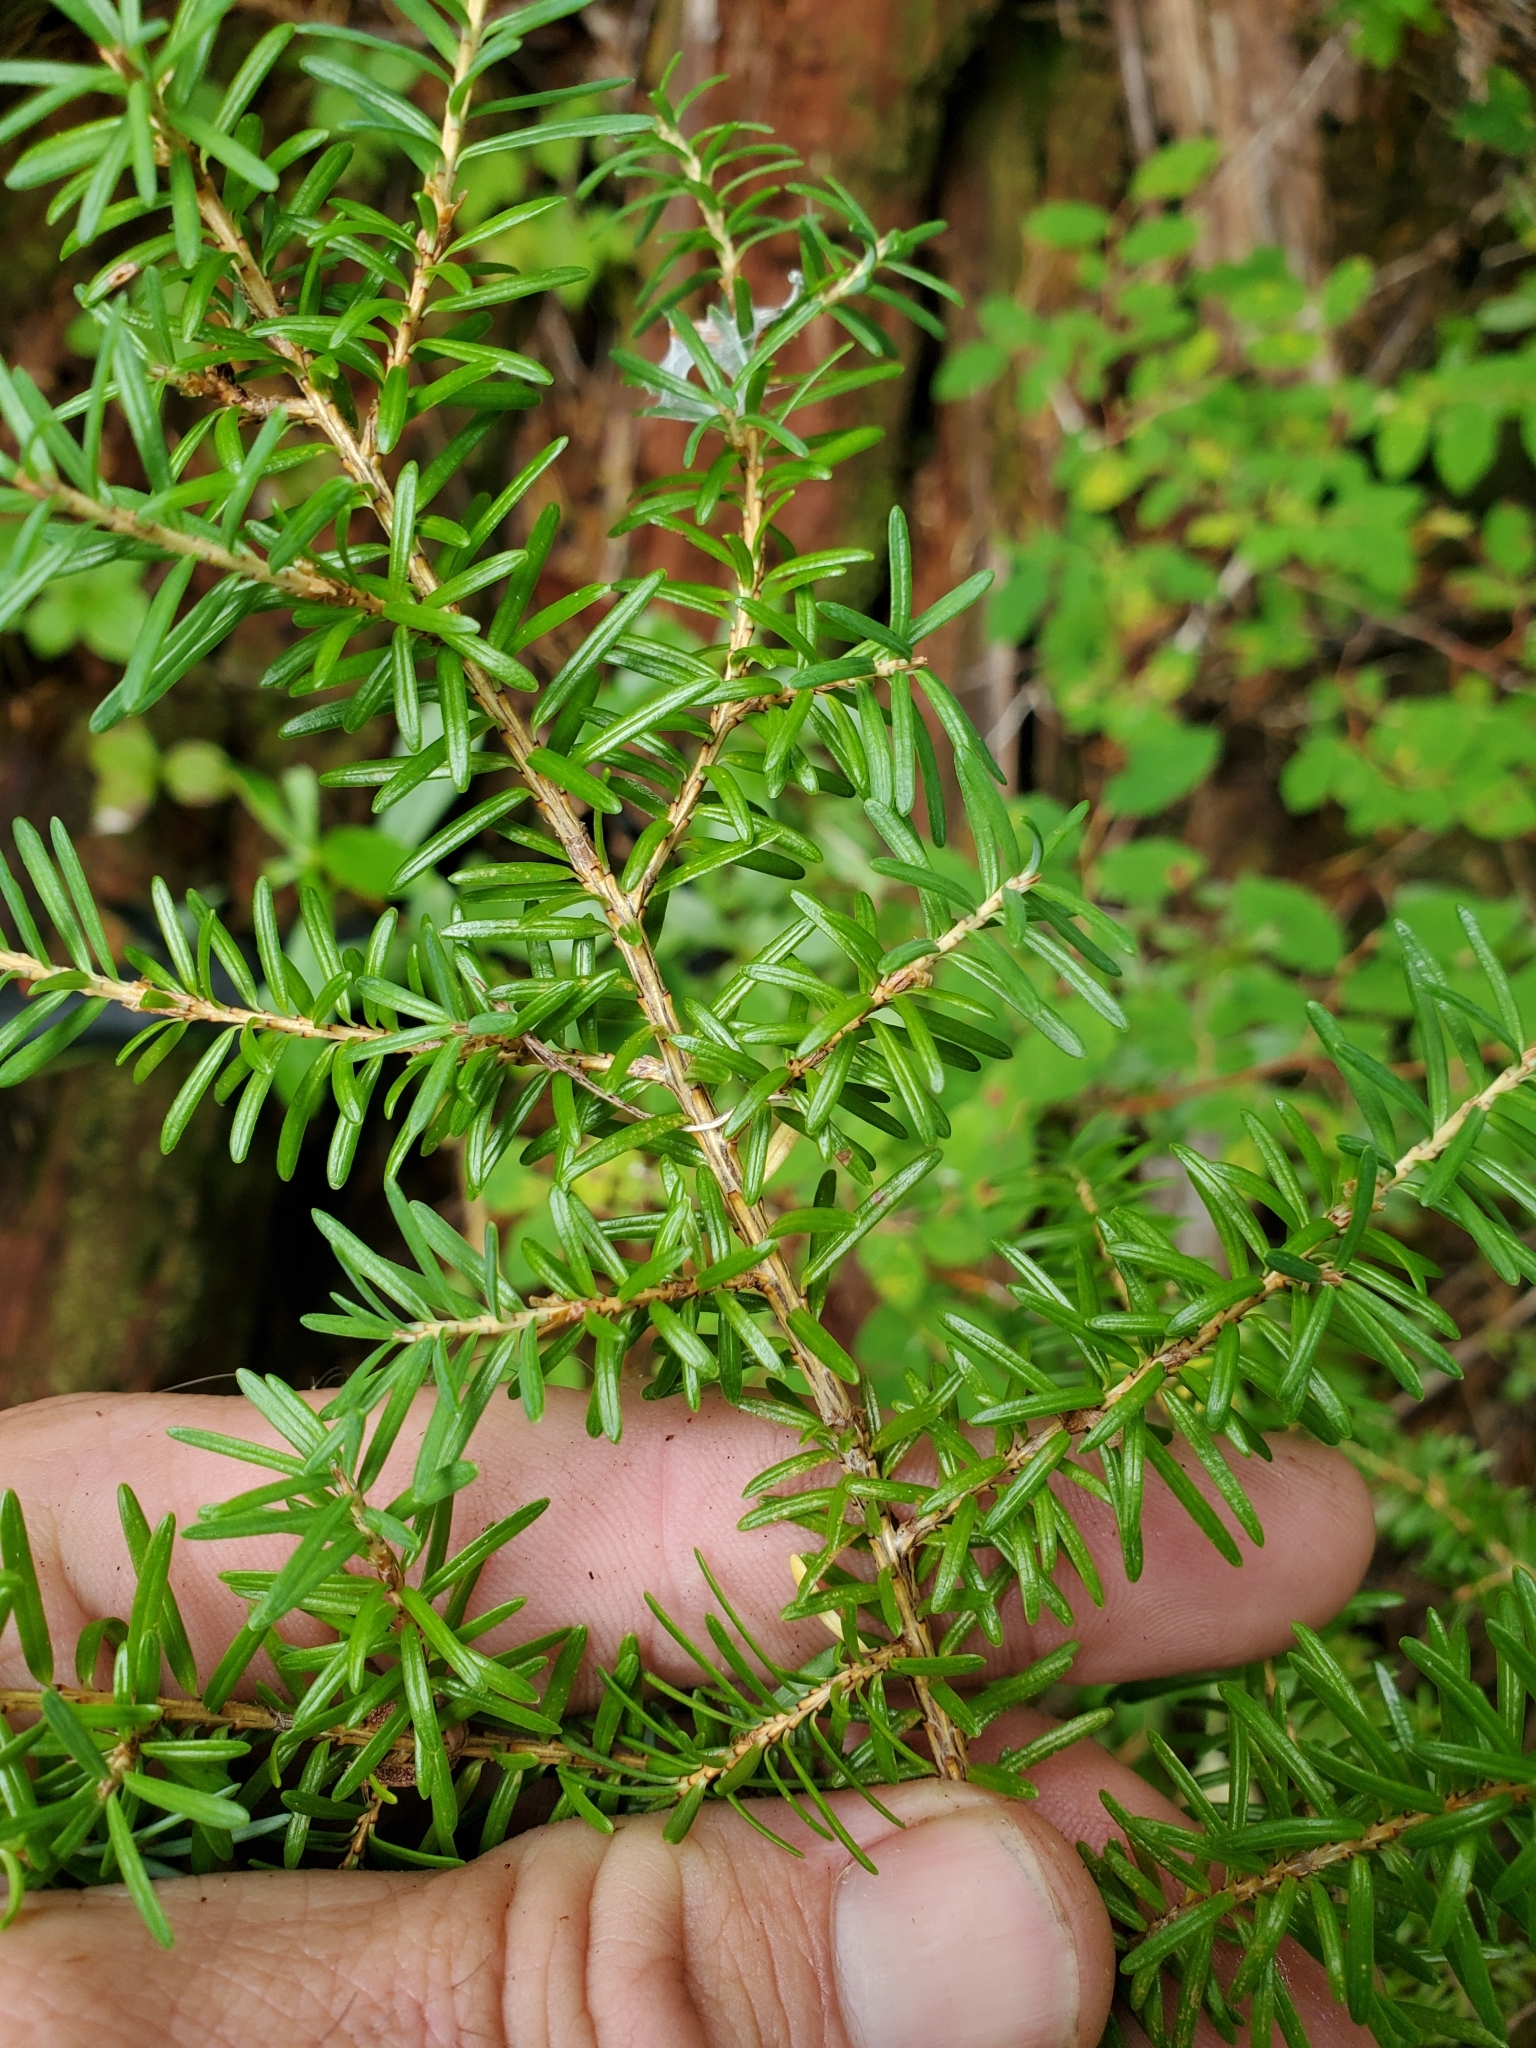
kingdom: Plantae
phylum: Tracheophyta
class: Pinopsida
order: Pinales
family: Pinaceae
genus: Tsuga
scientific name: Tsuga heterophylla
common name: Western hemlock
